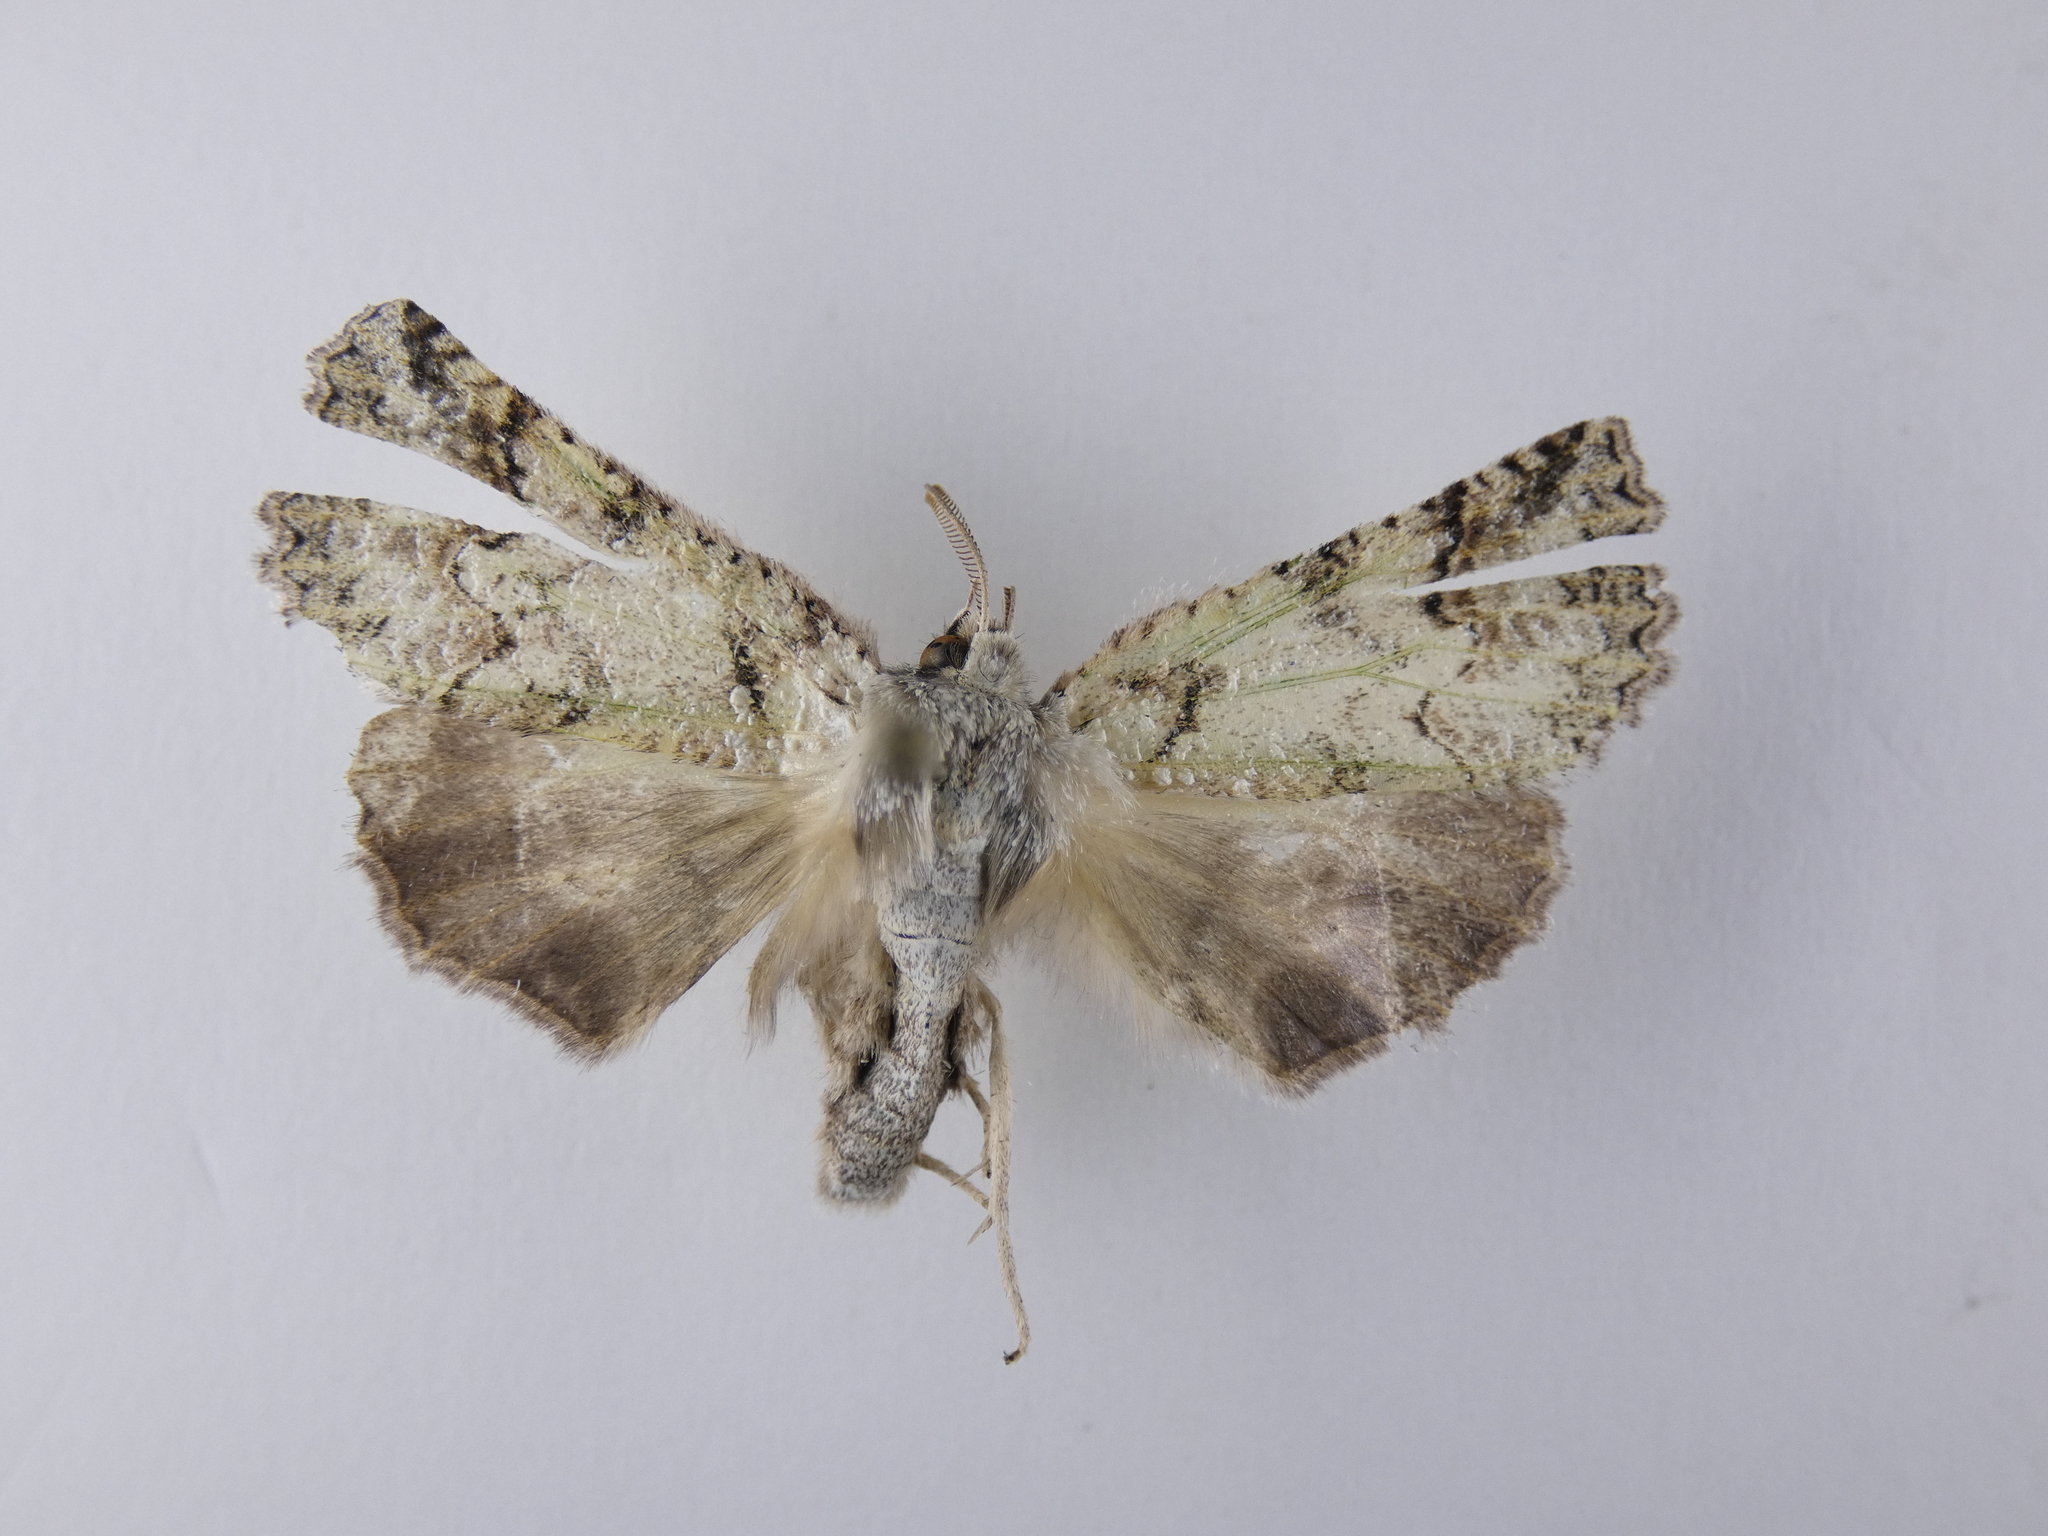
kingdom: Animalia
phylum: Arthropoda
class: Insecta
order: Lepidoptera
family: Geometridae
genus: Declana
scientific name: Declana floccosa
